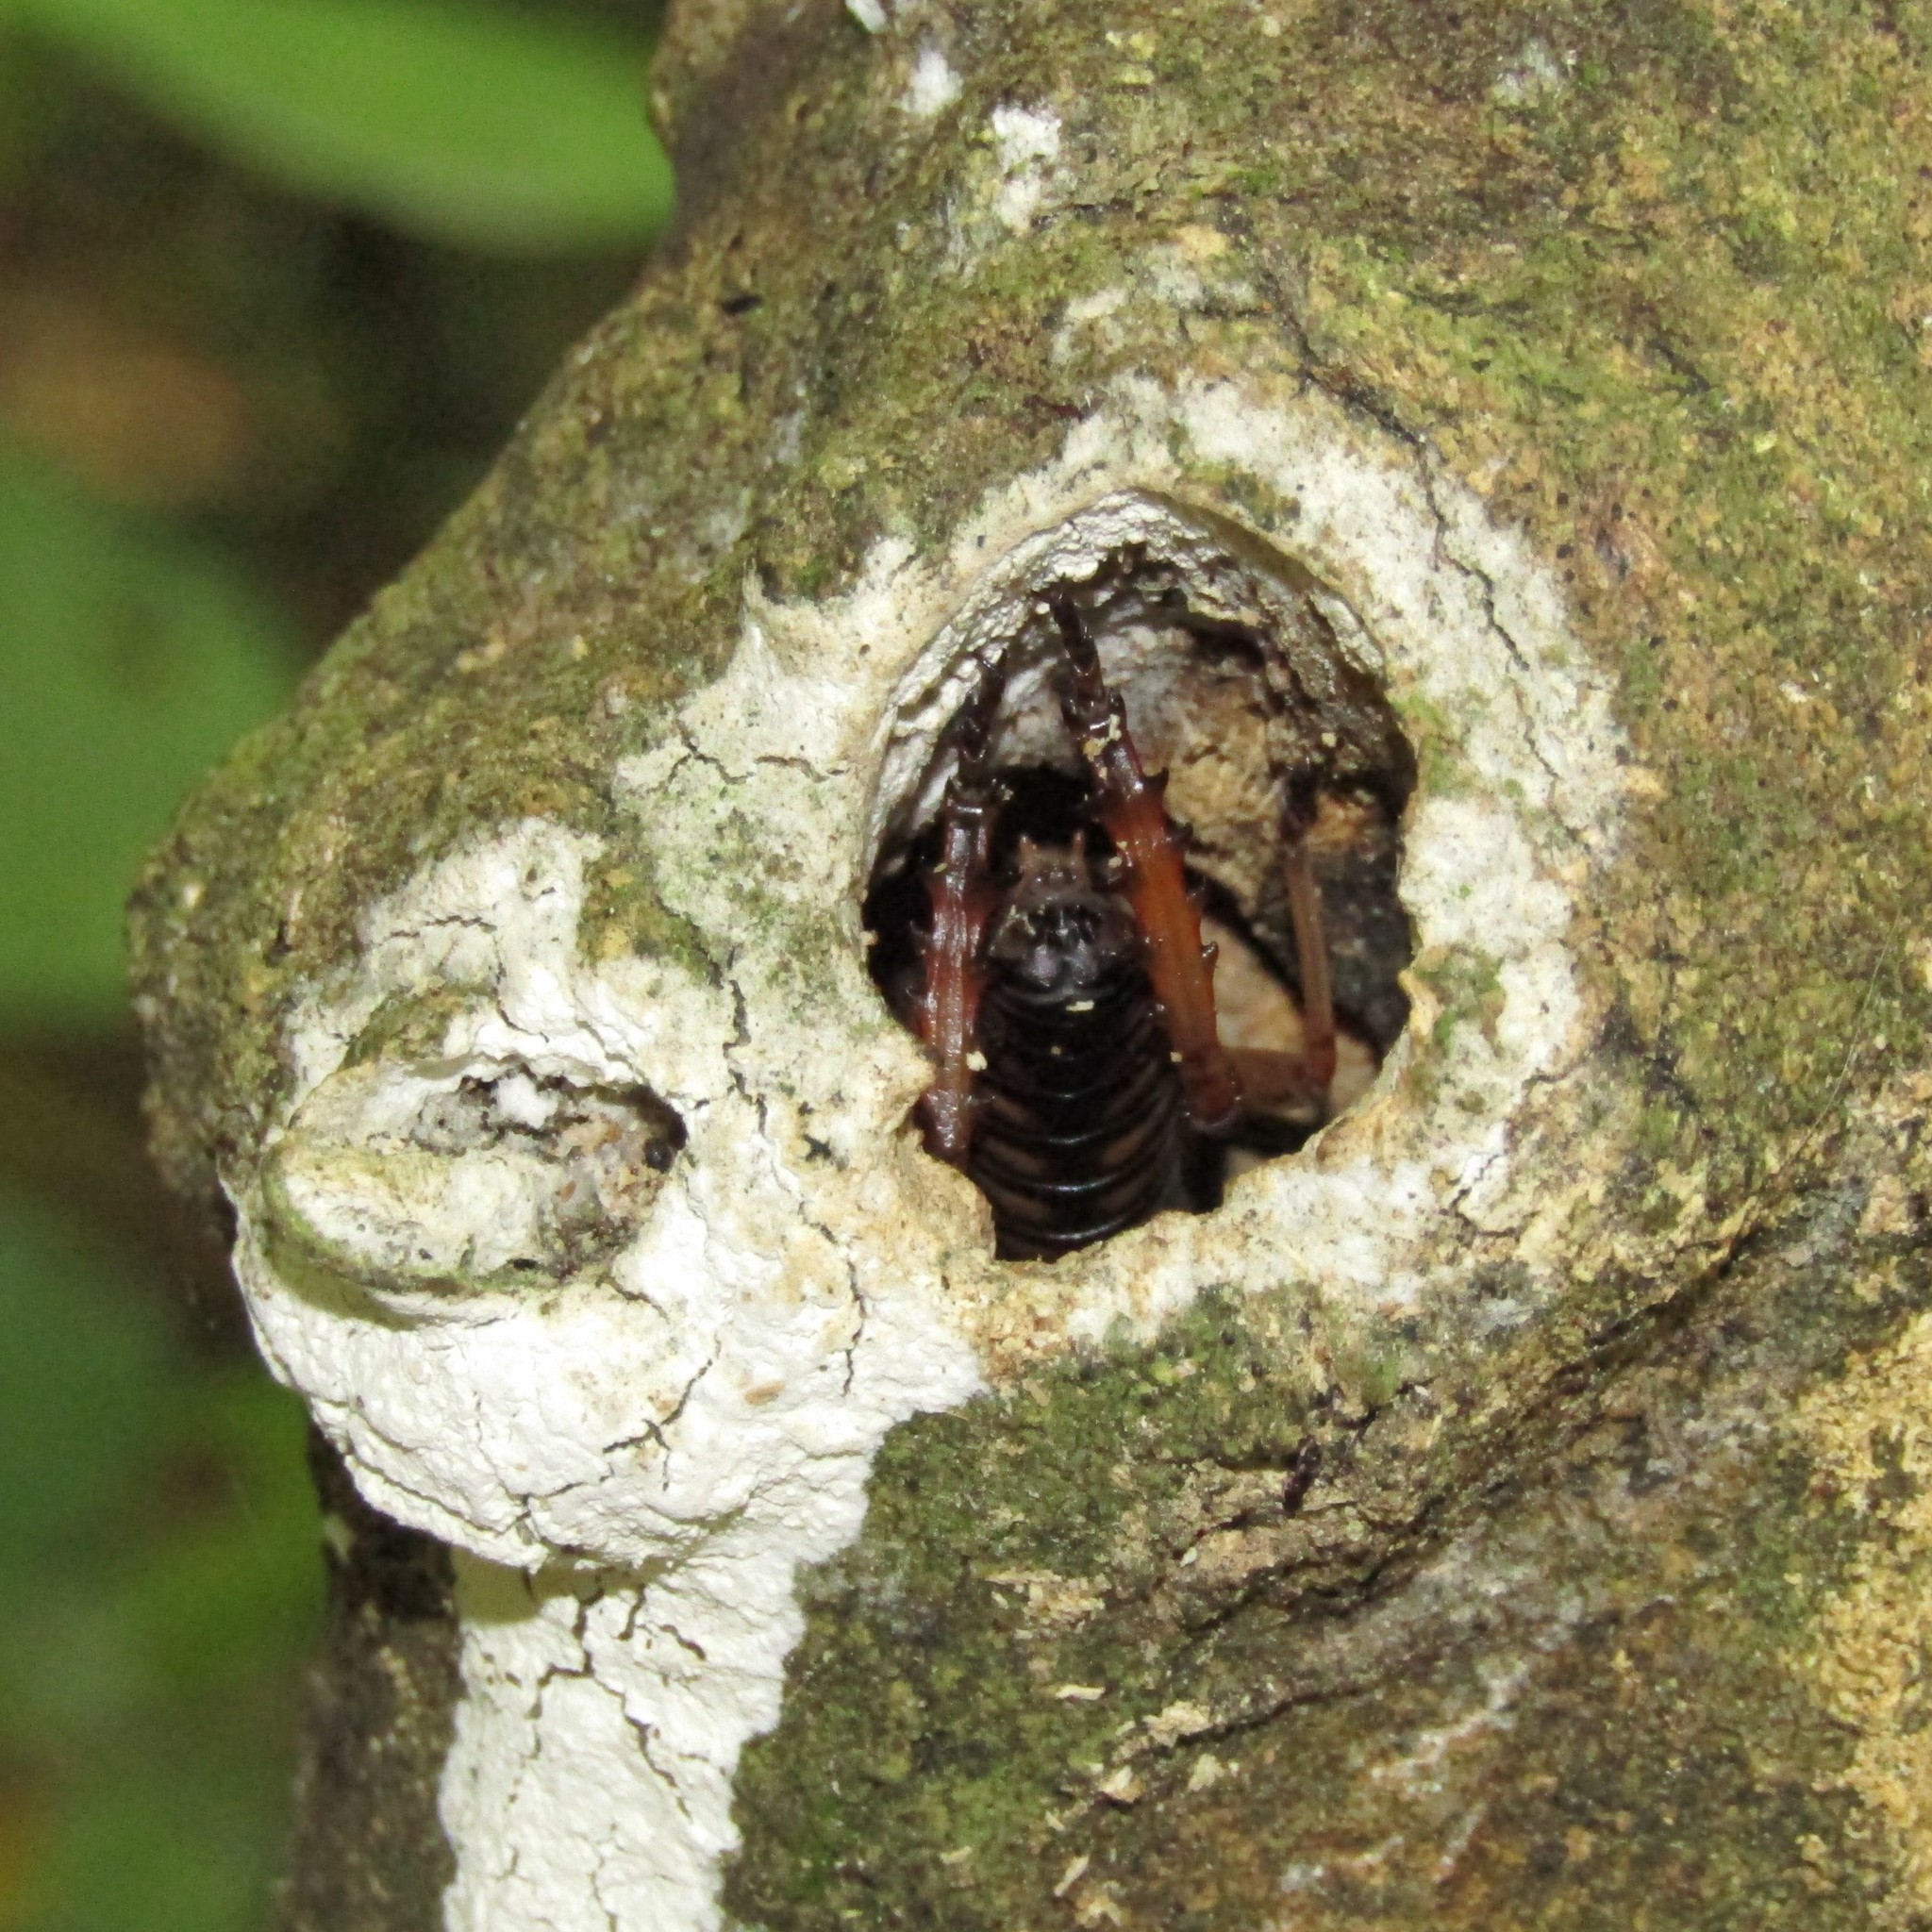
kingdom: Animalia
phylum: Arthropoda
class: Insecta
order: Orthoptera
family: Anostostomatidae
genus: Hemideina
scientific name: Hemideina crassidens
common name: Wellington tree weta
